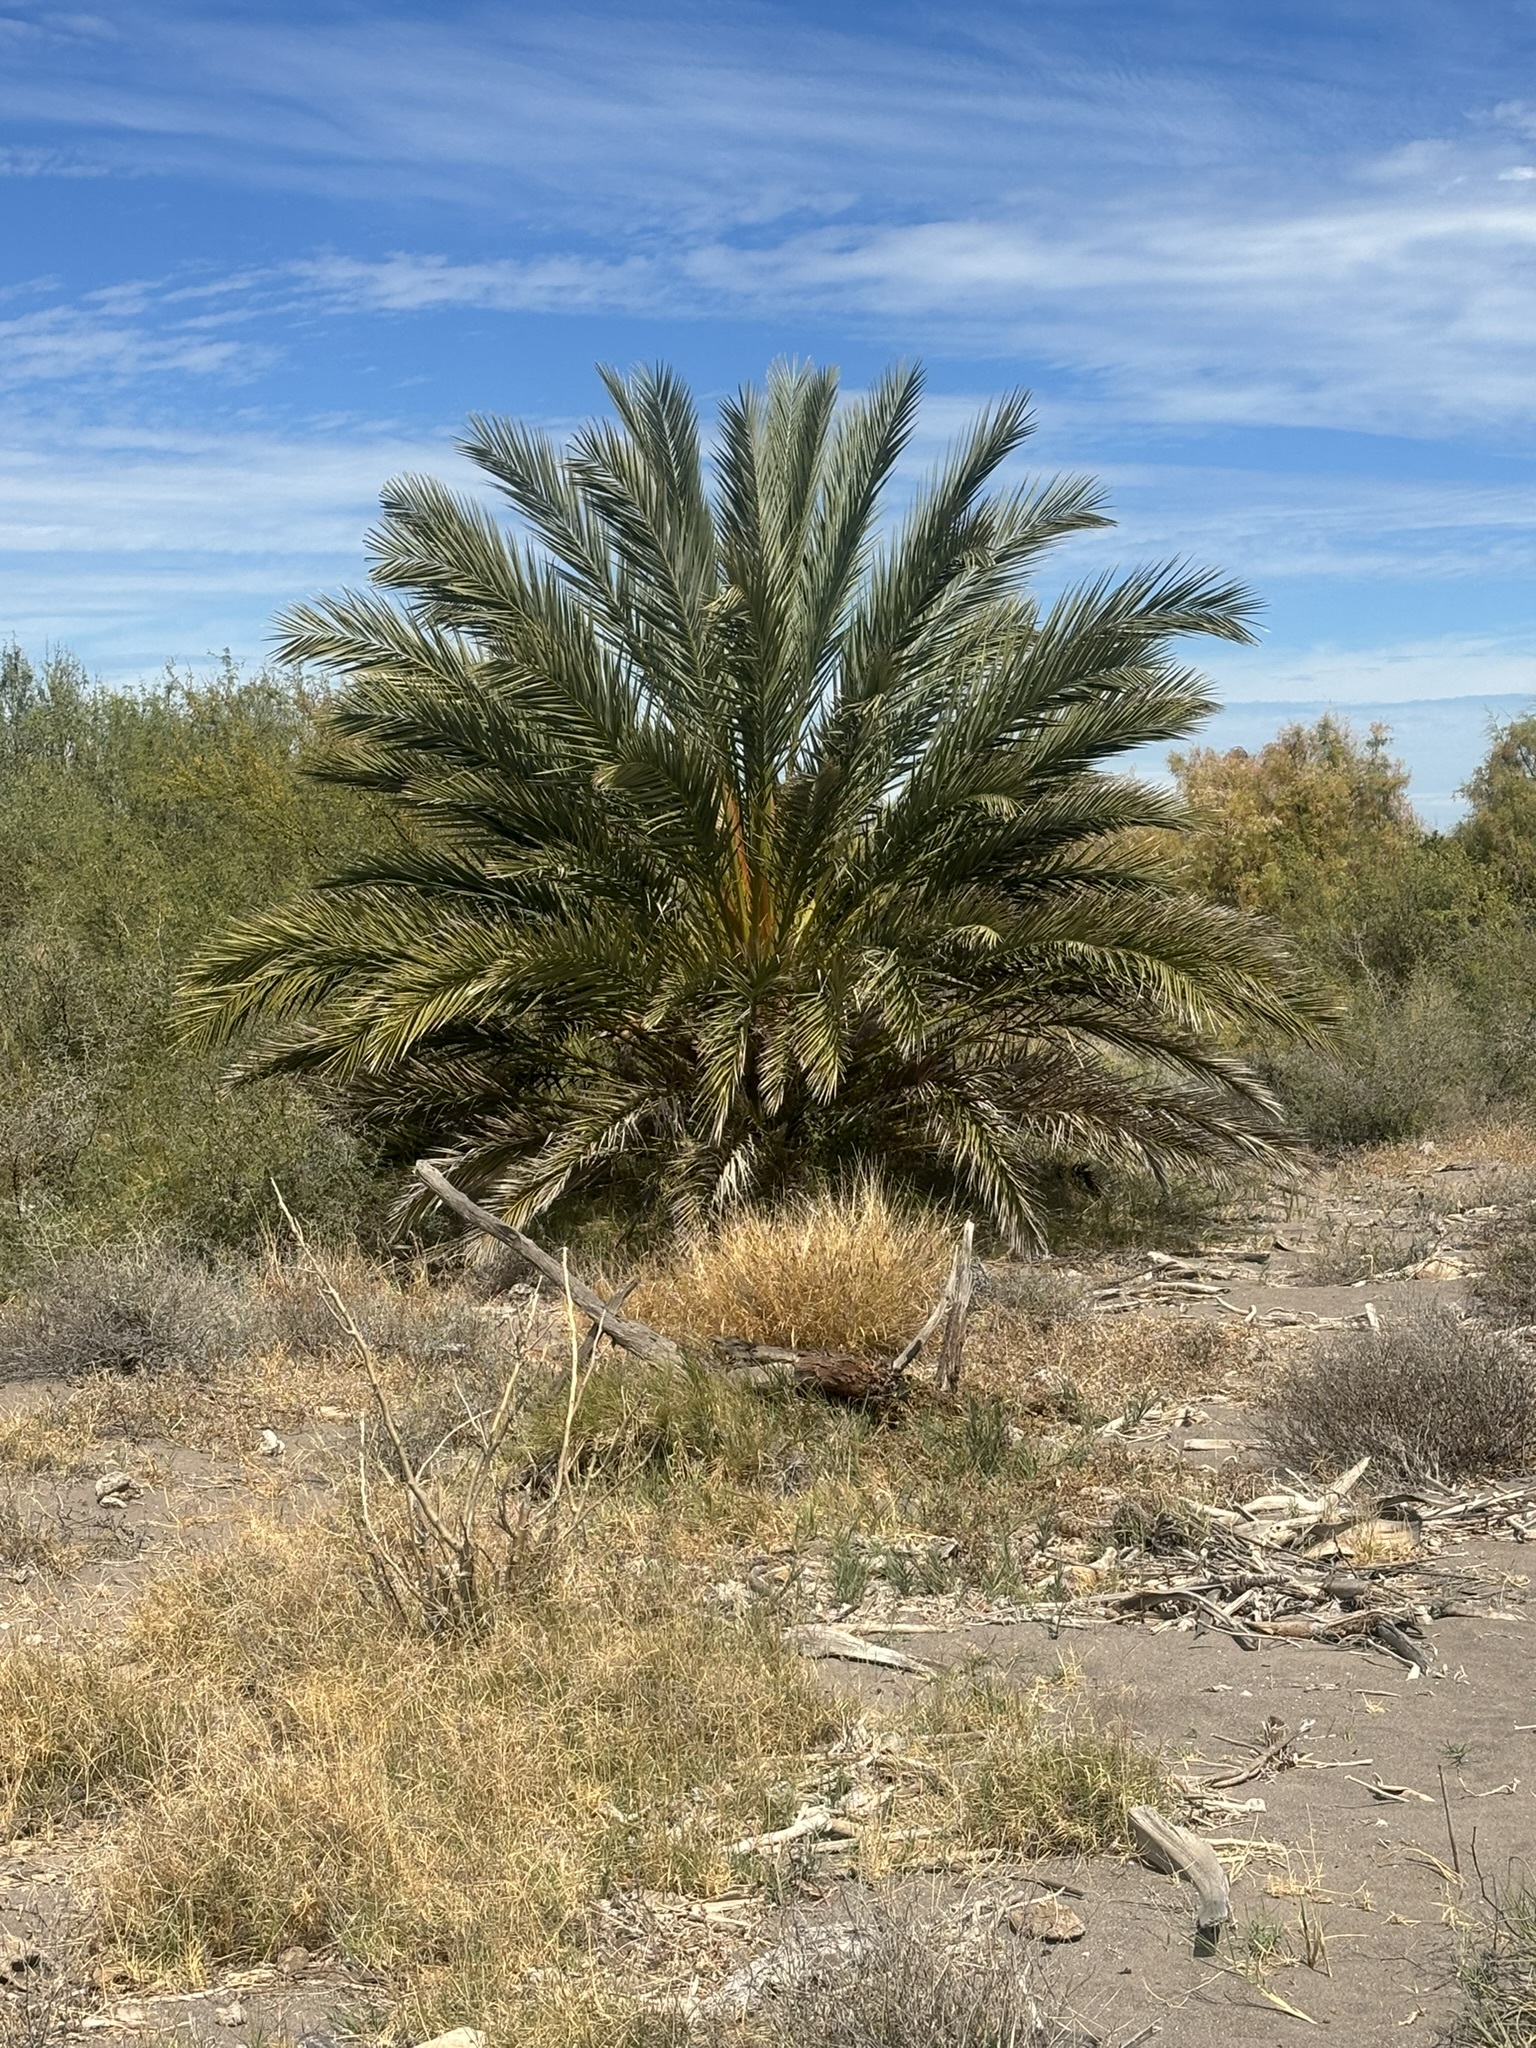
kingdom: Plantae
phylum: Tracheophyta
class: Liliopsida
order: Arecales
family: Arecaceae
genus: Phoenix
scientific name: Phoenix dactylifera
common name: Date palm
